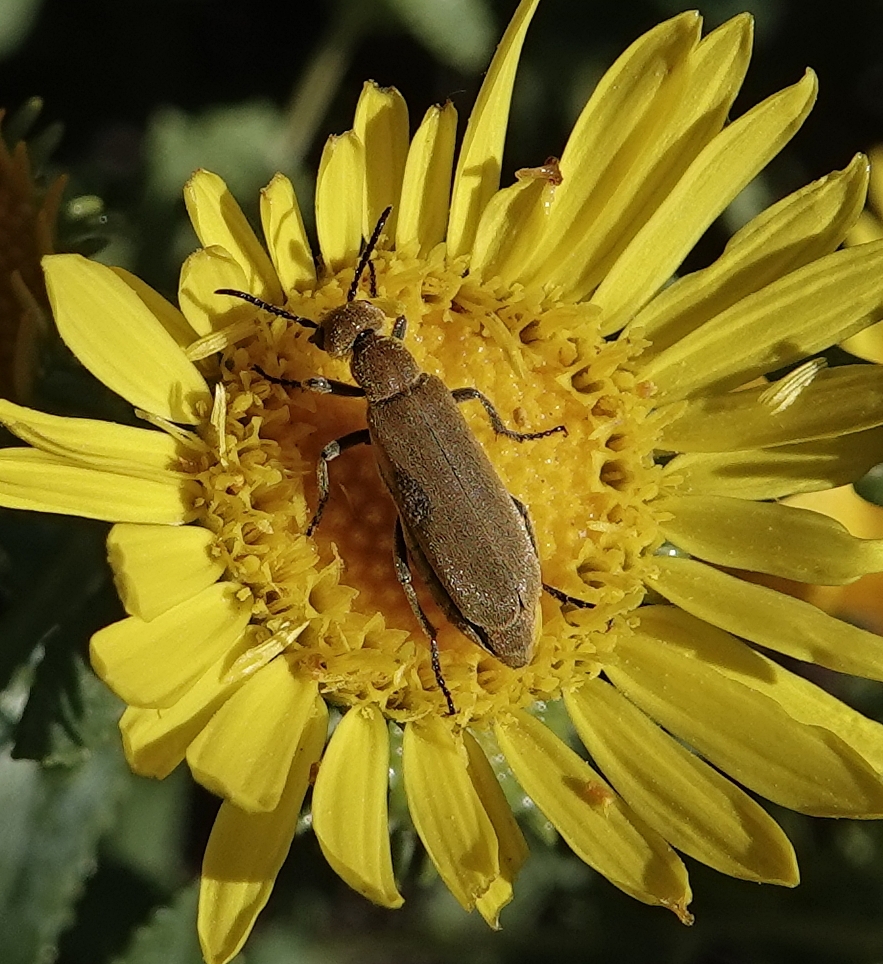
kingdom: Animalia
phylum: Arthropoda
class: Insecta
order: Coleoptera
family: Meloidae
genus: Epicauta
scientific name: Epicauta ferruginea
